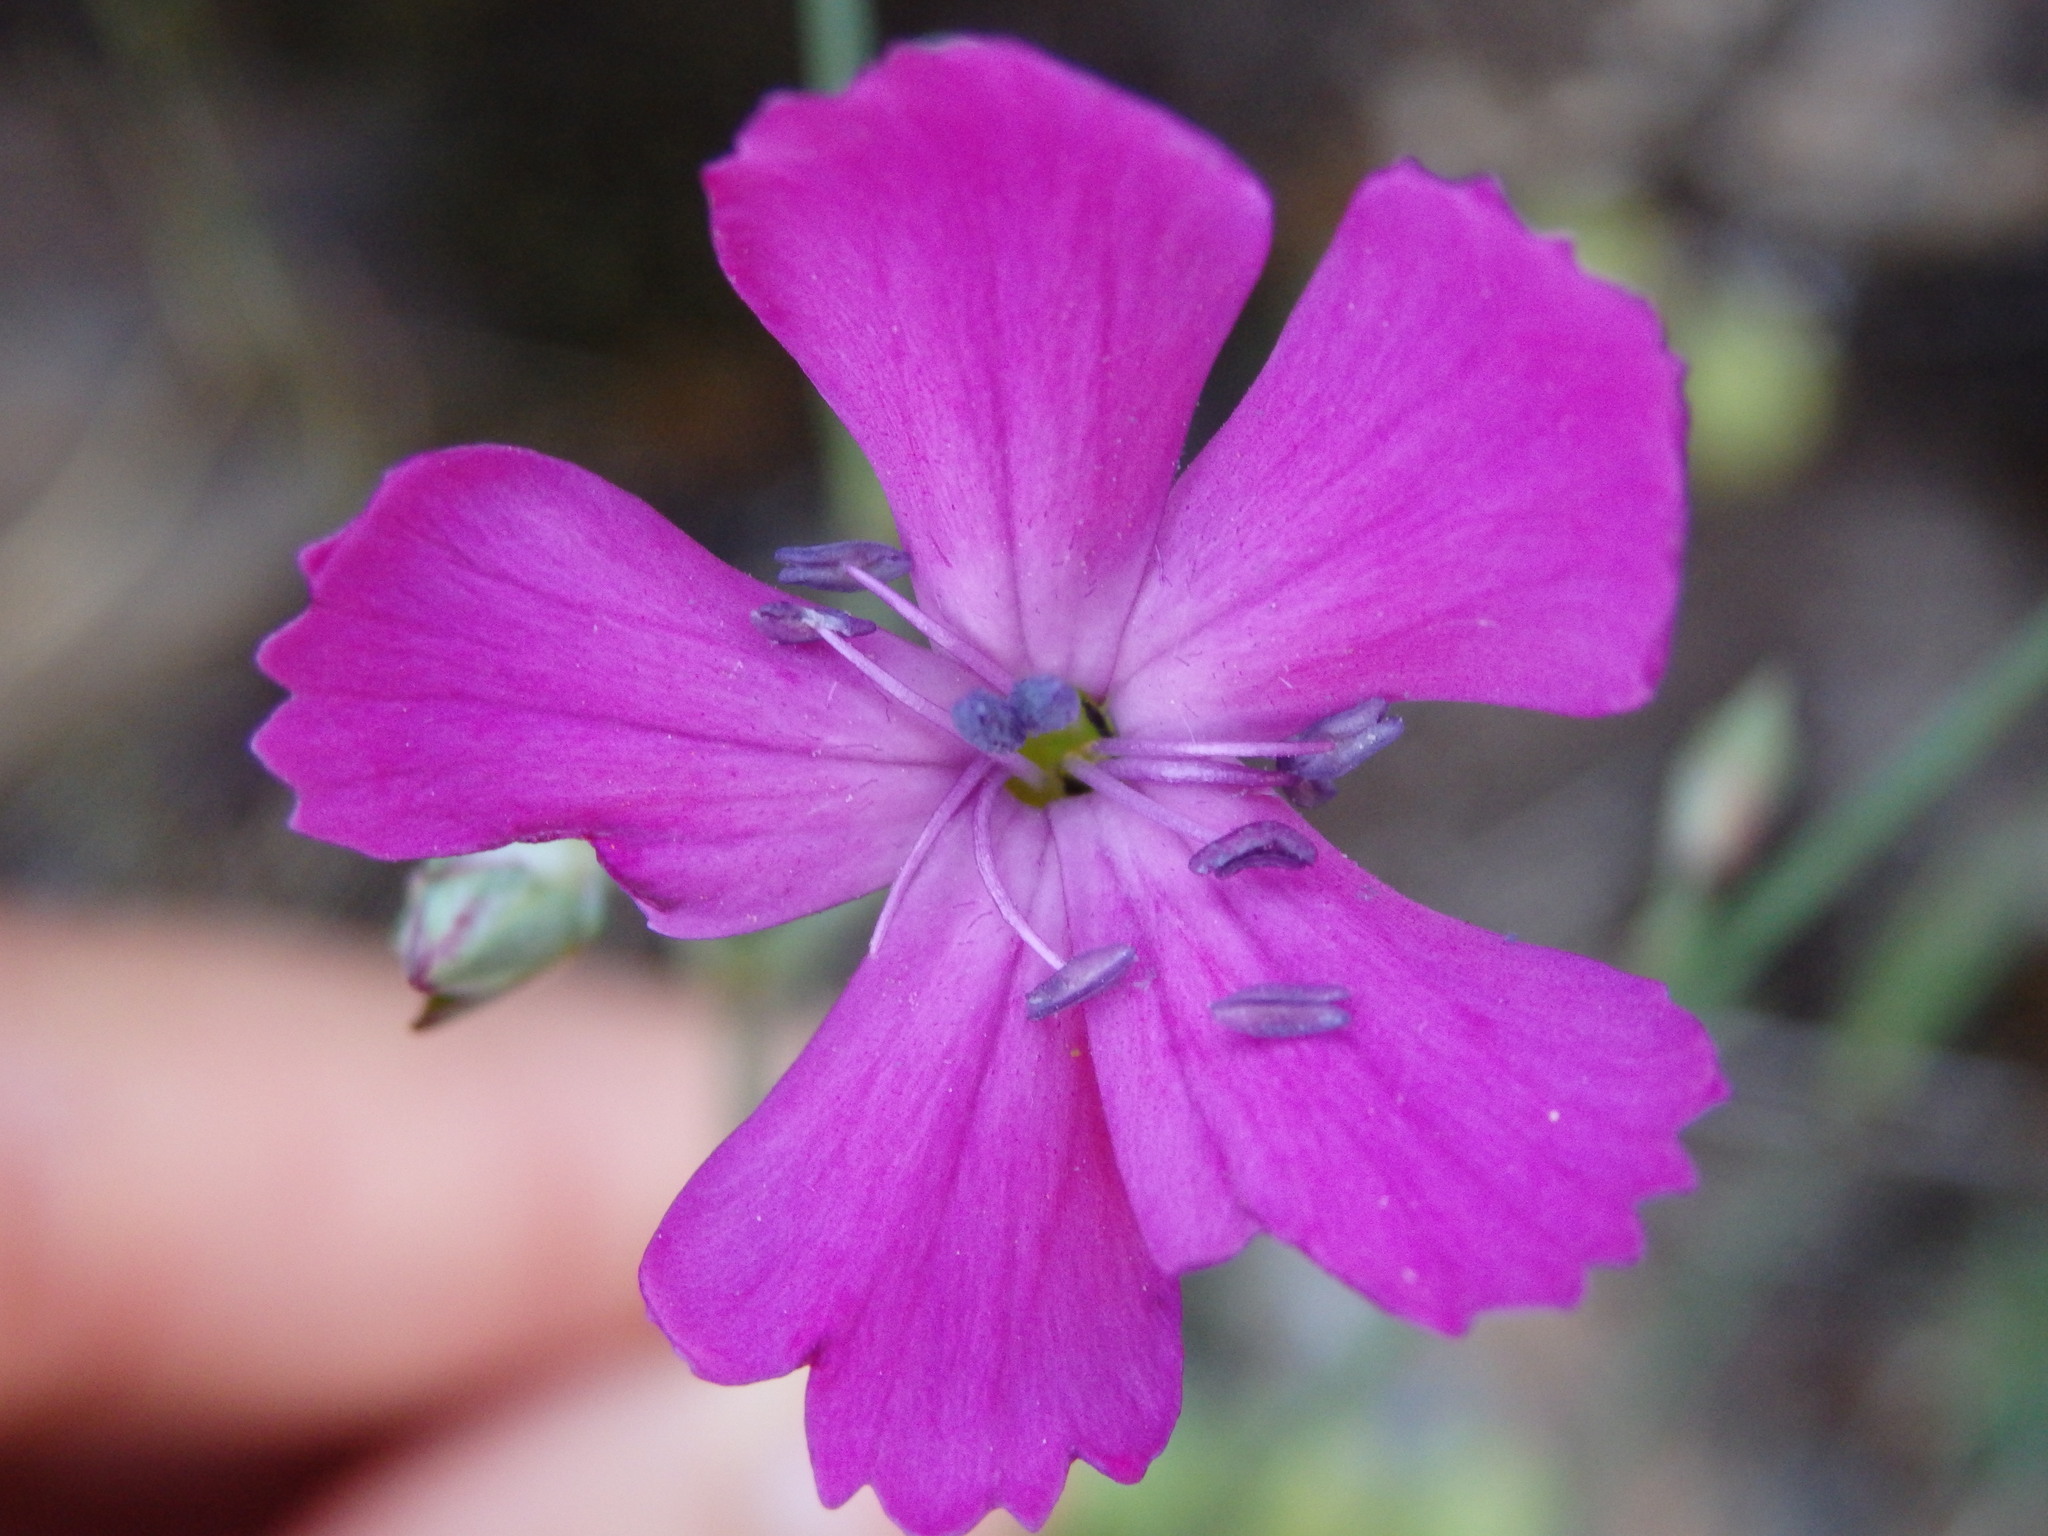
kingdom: Plantae
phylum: Tracheophyta
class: Magnoliopsida
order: Caryophyllales
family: Caryophyllaceae
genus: Dianthus
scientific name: Dianthus lusitanus
